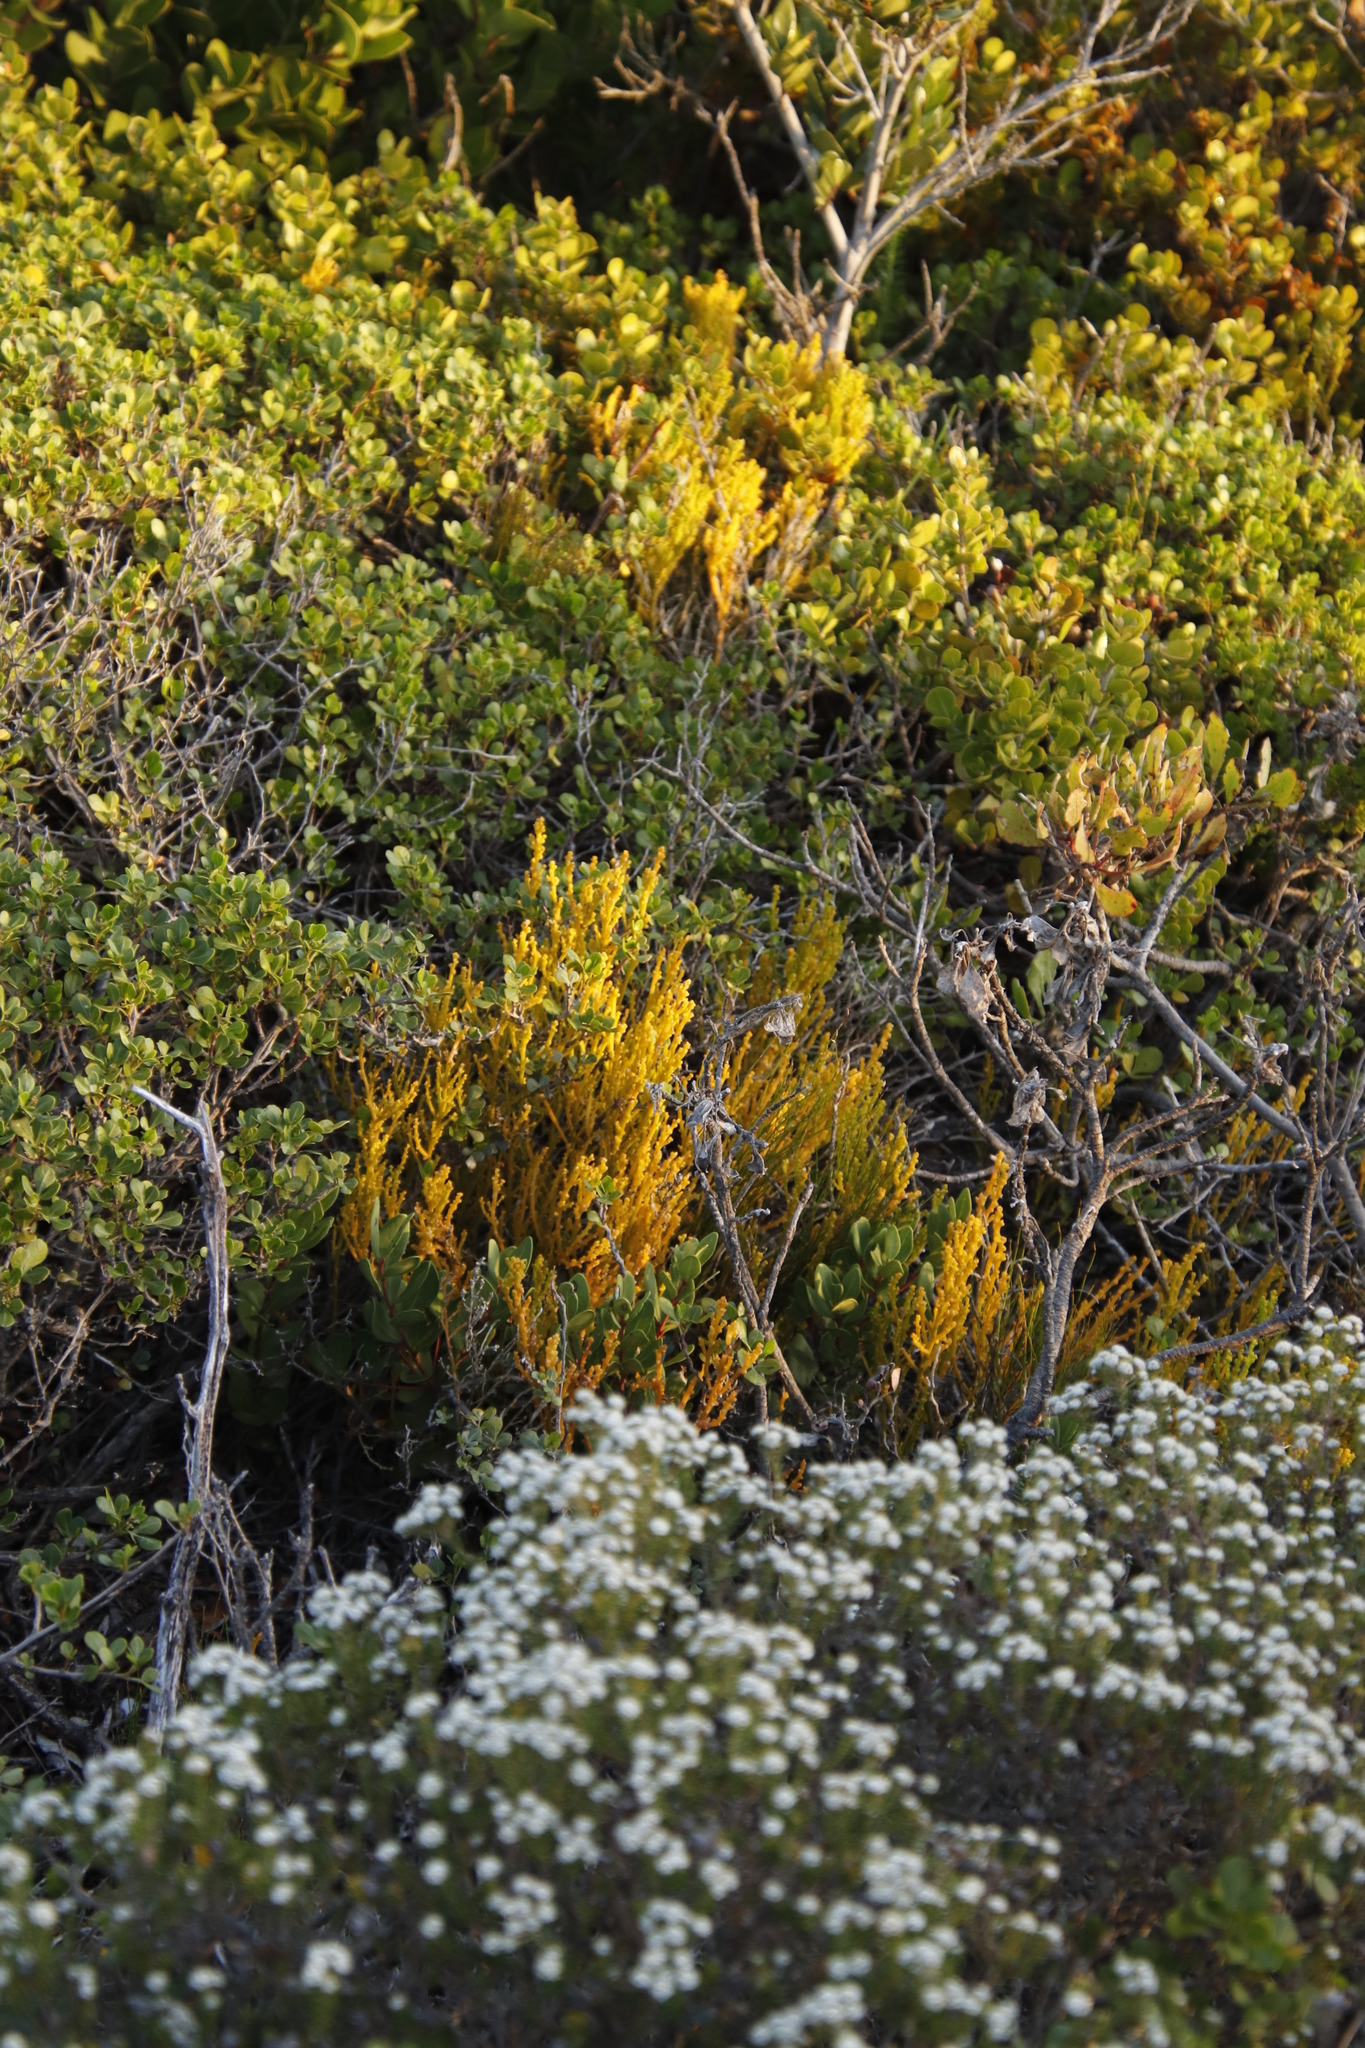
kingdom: Plantae
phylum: Tracheophyta
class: Magnoliopsida
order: Santalales
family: Thesiaceae
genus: Thesium
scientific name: Thesium fragile
